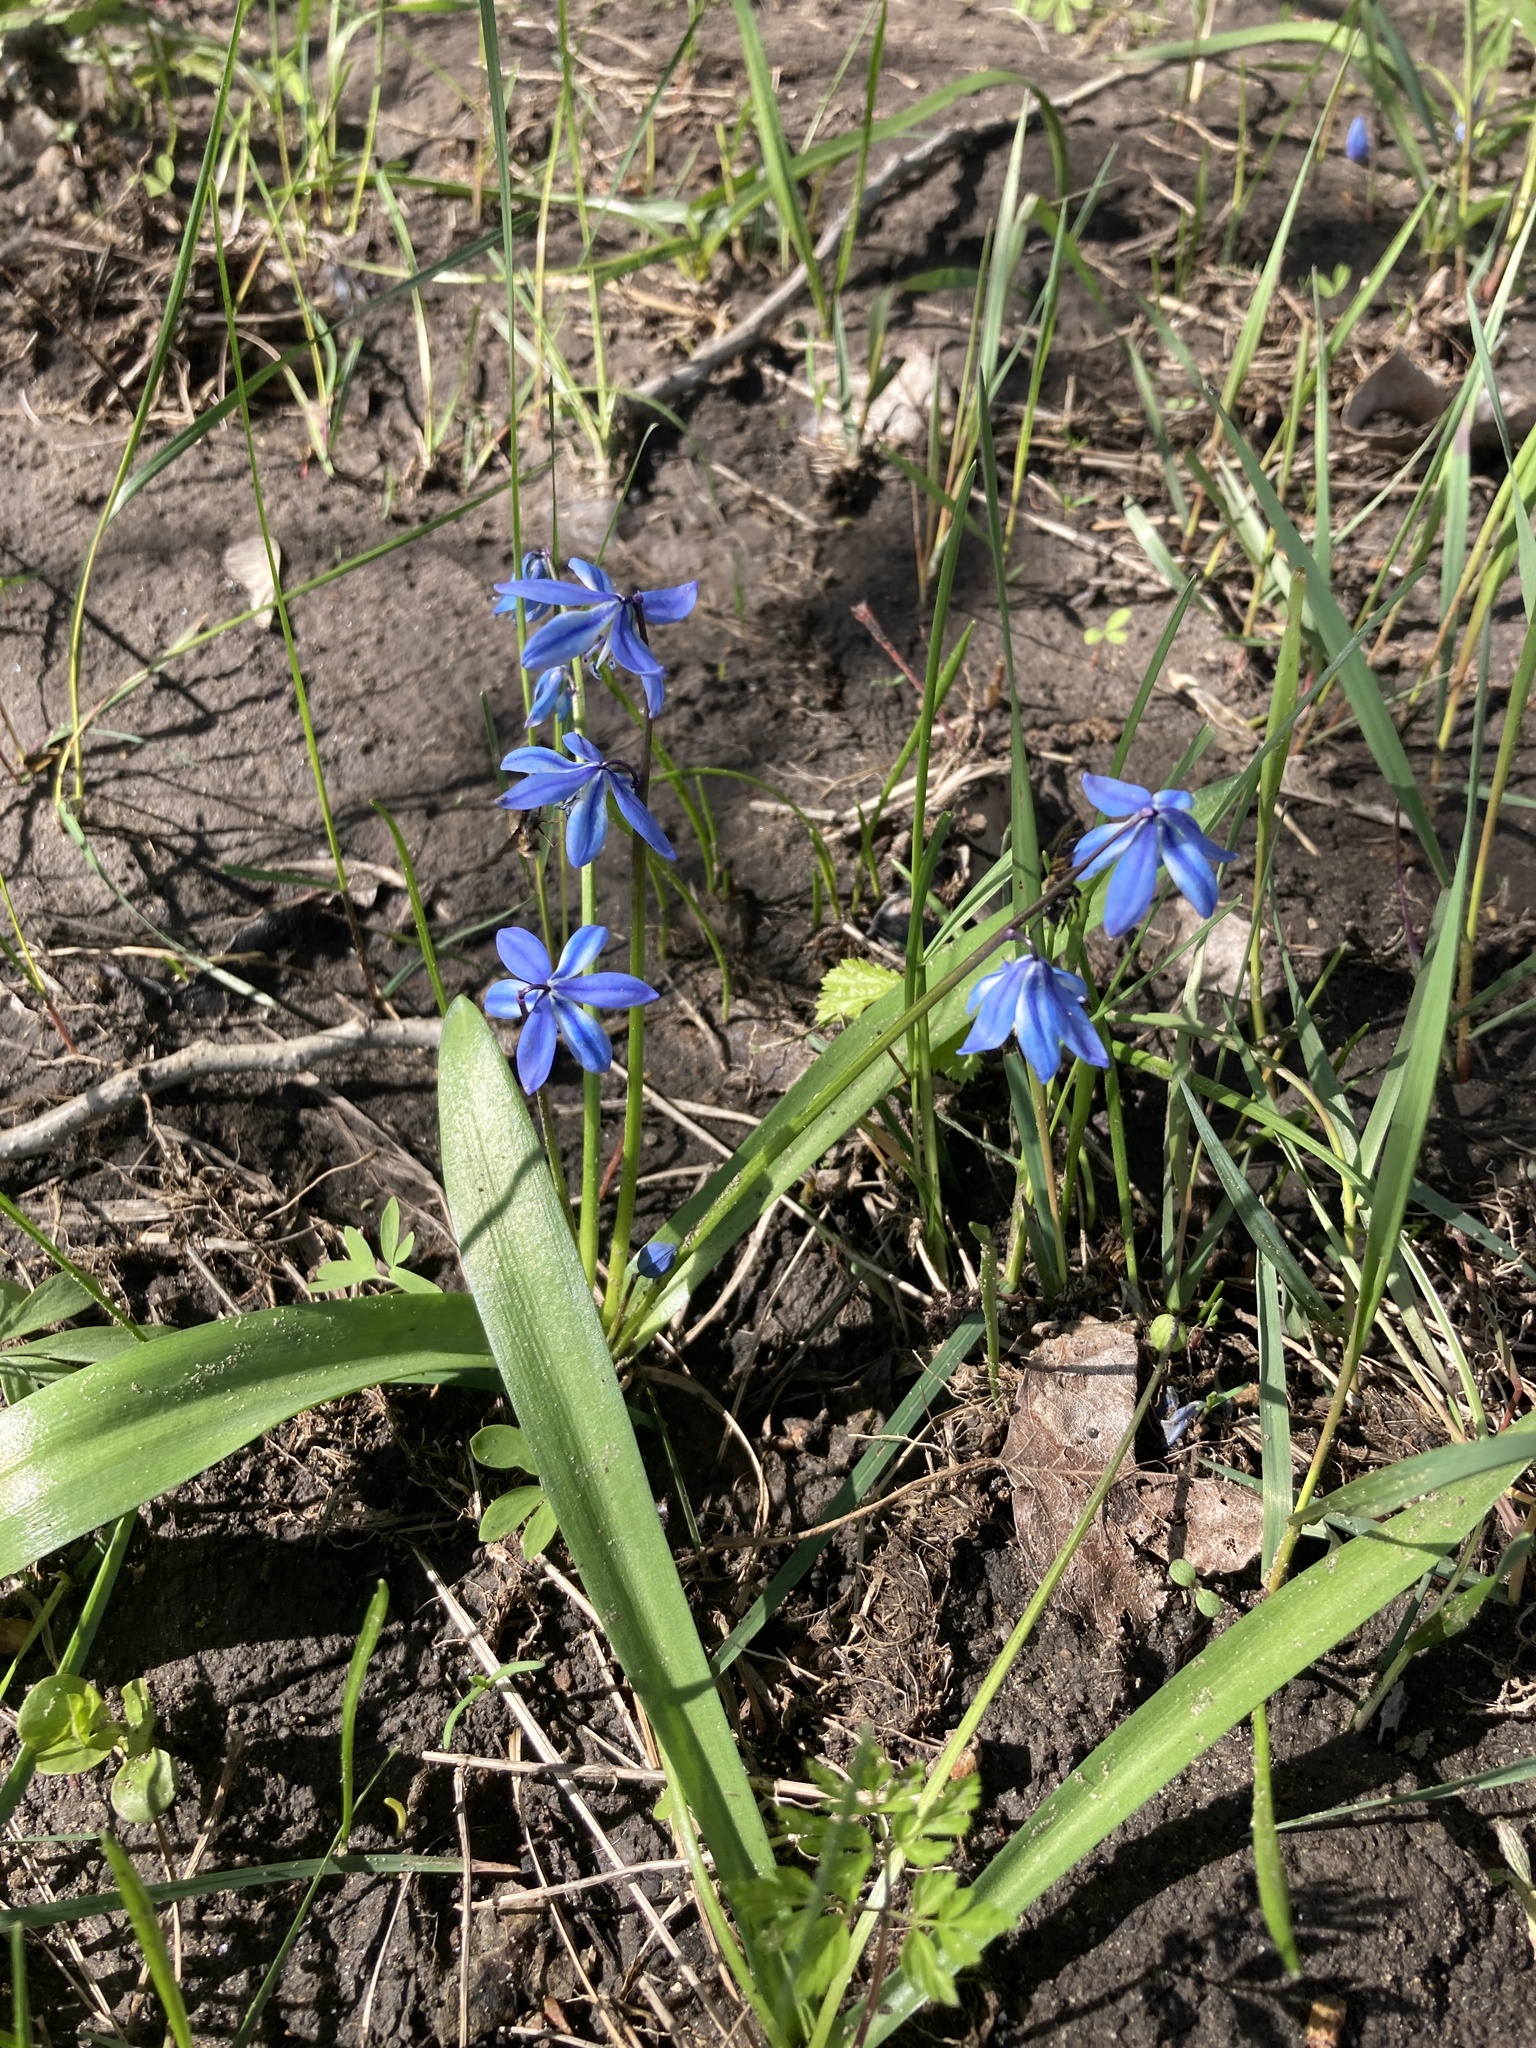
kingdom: Plantae
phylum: Tracheophyta
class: Liliopsida
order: Asparagales
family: Asparagaceae
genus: Scilla
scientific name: Scilla siberica
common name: Siberian squill
